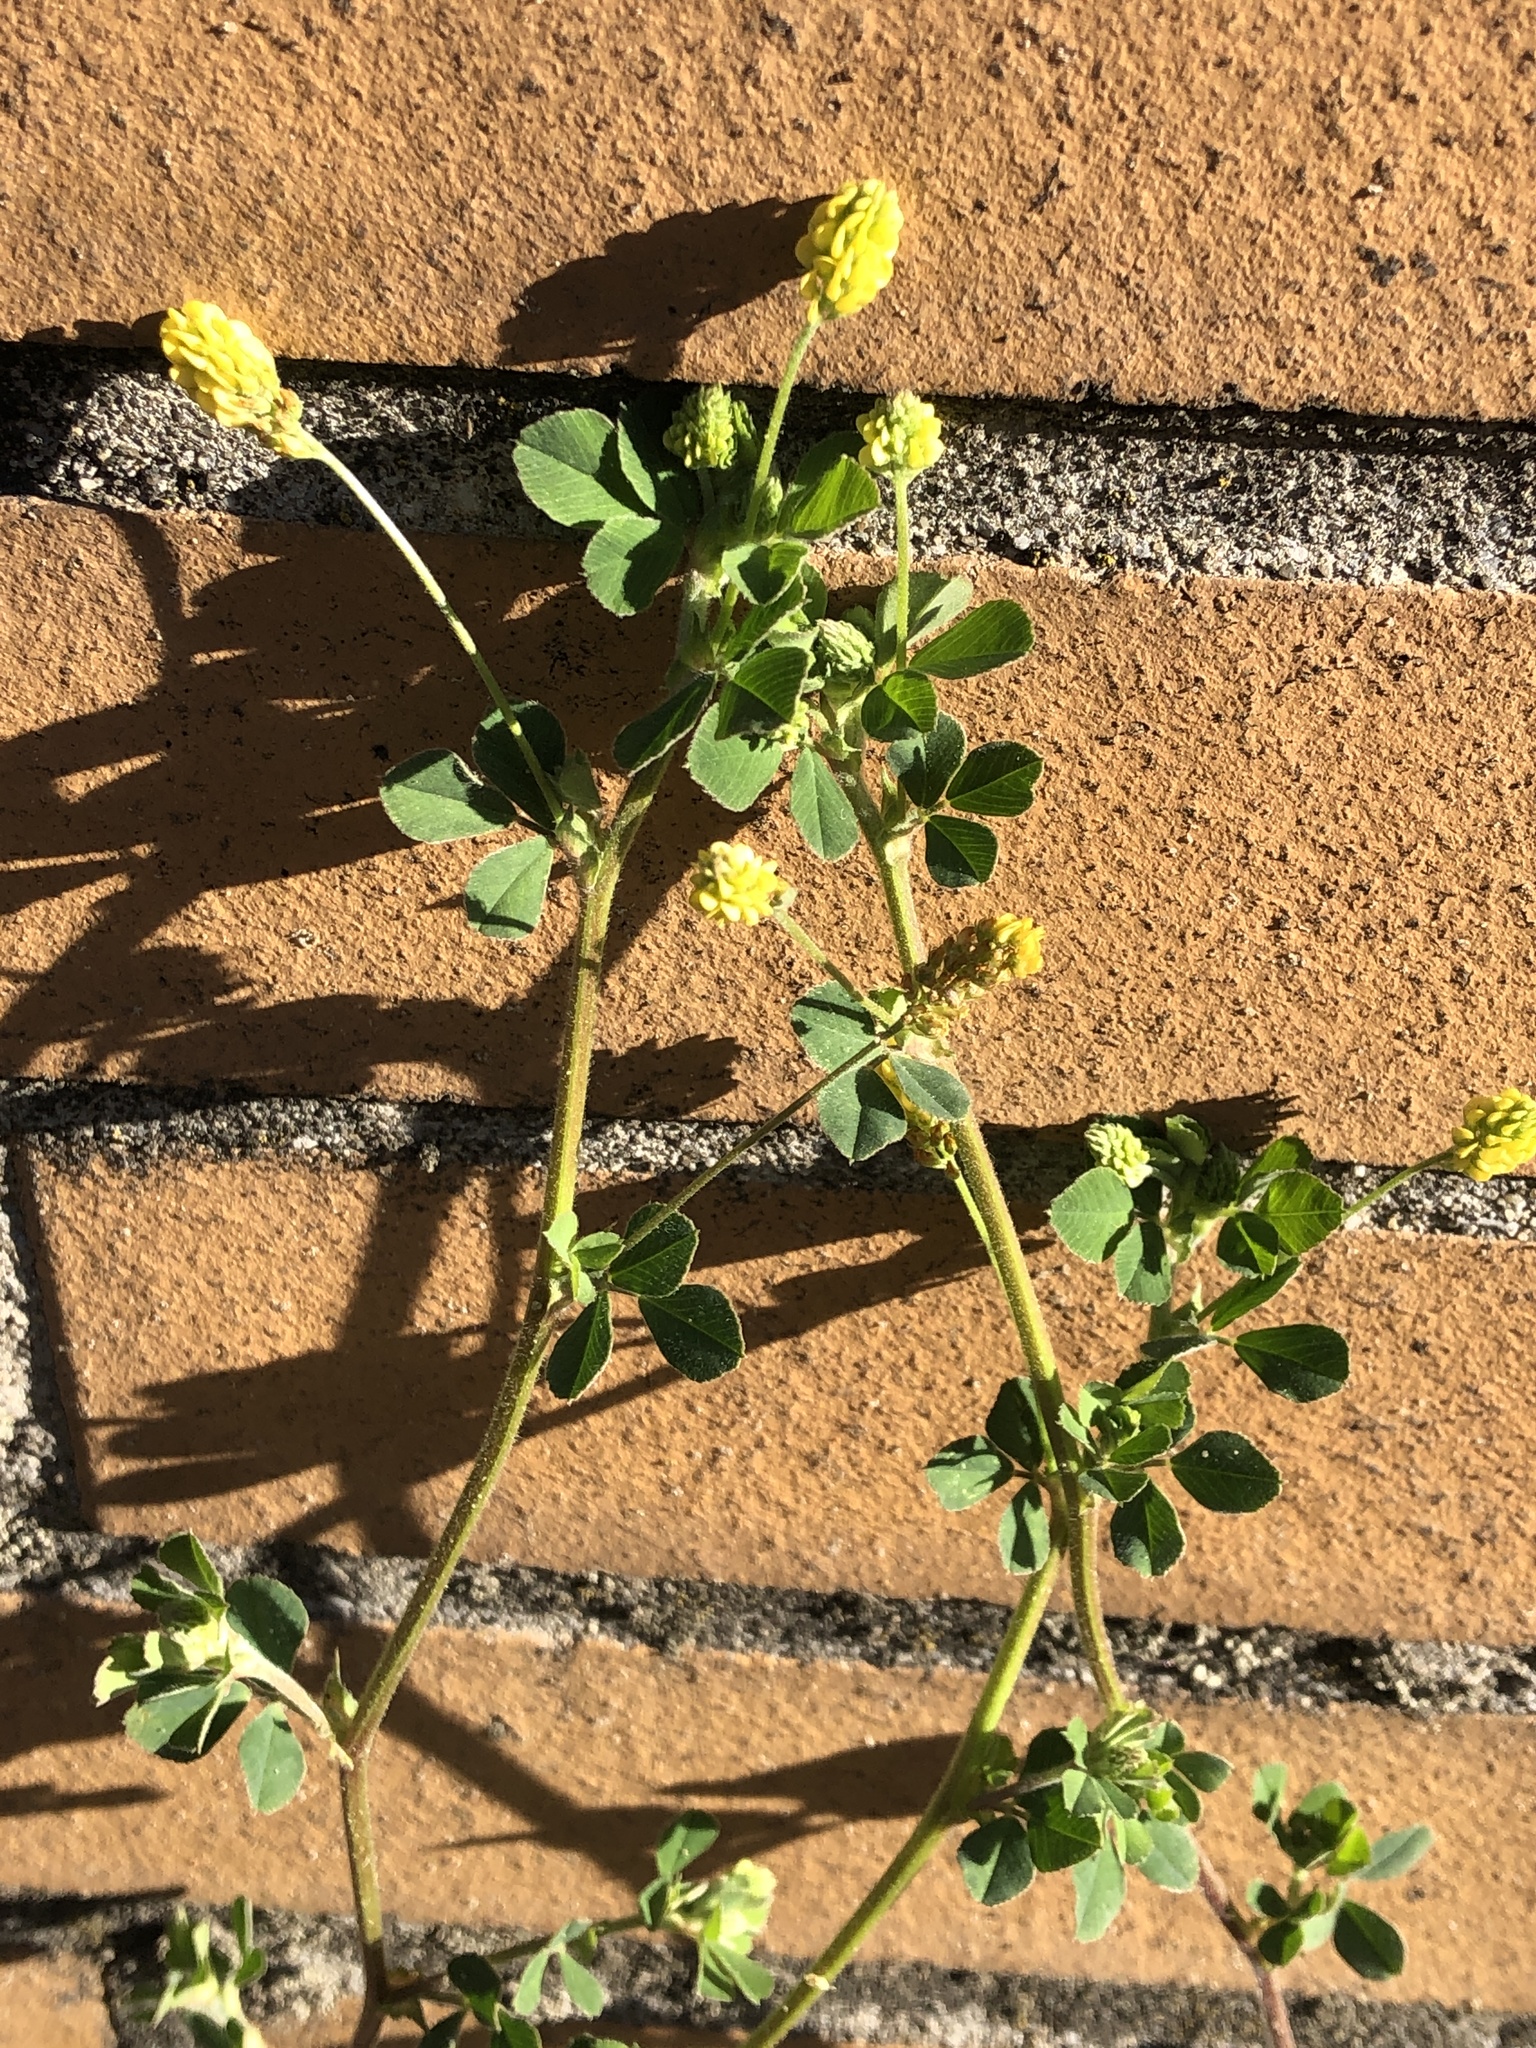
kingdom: Plantae
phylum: Tracheophyta
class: Magnoliopsida
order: Fabales
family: Fabaceae
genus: Medicago
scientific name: Medicago lupulina
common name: Black medick
